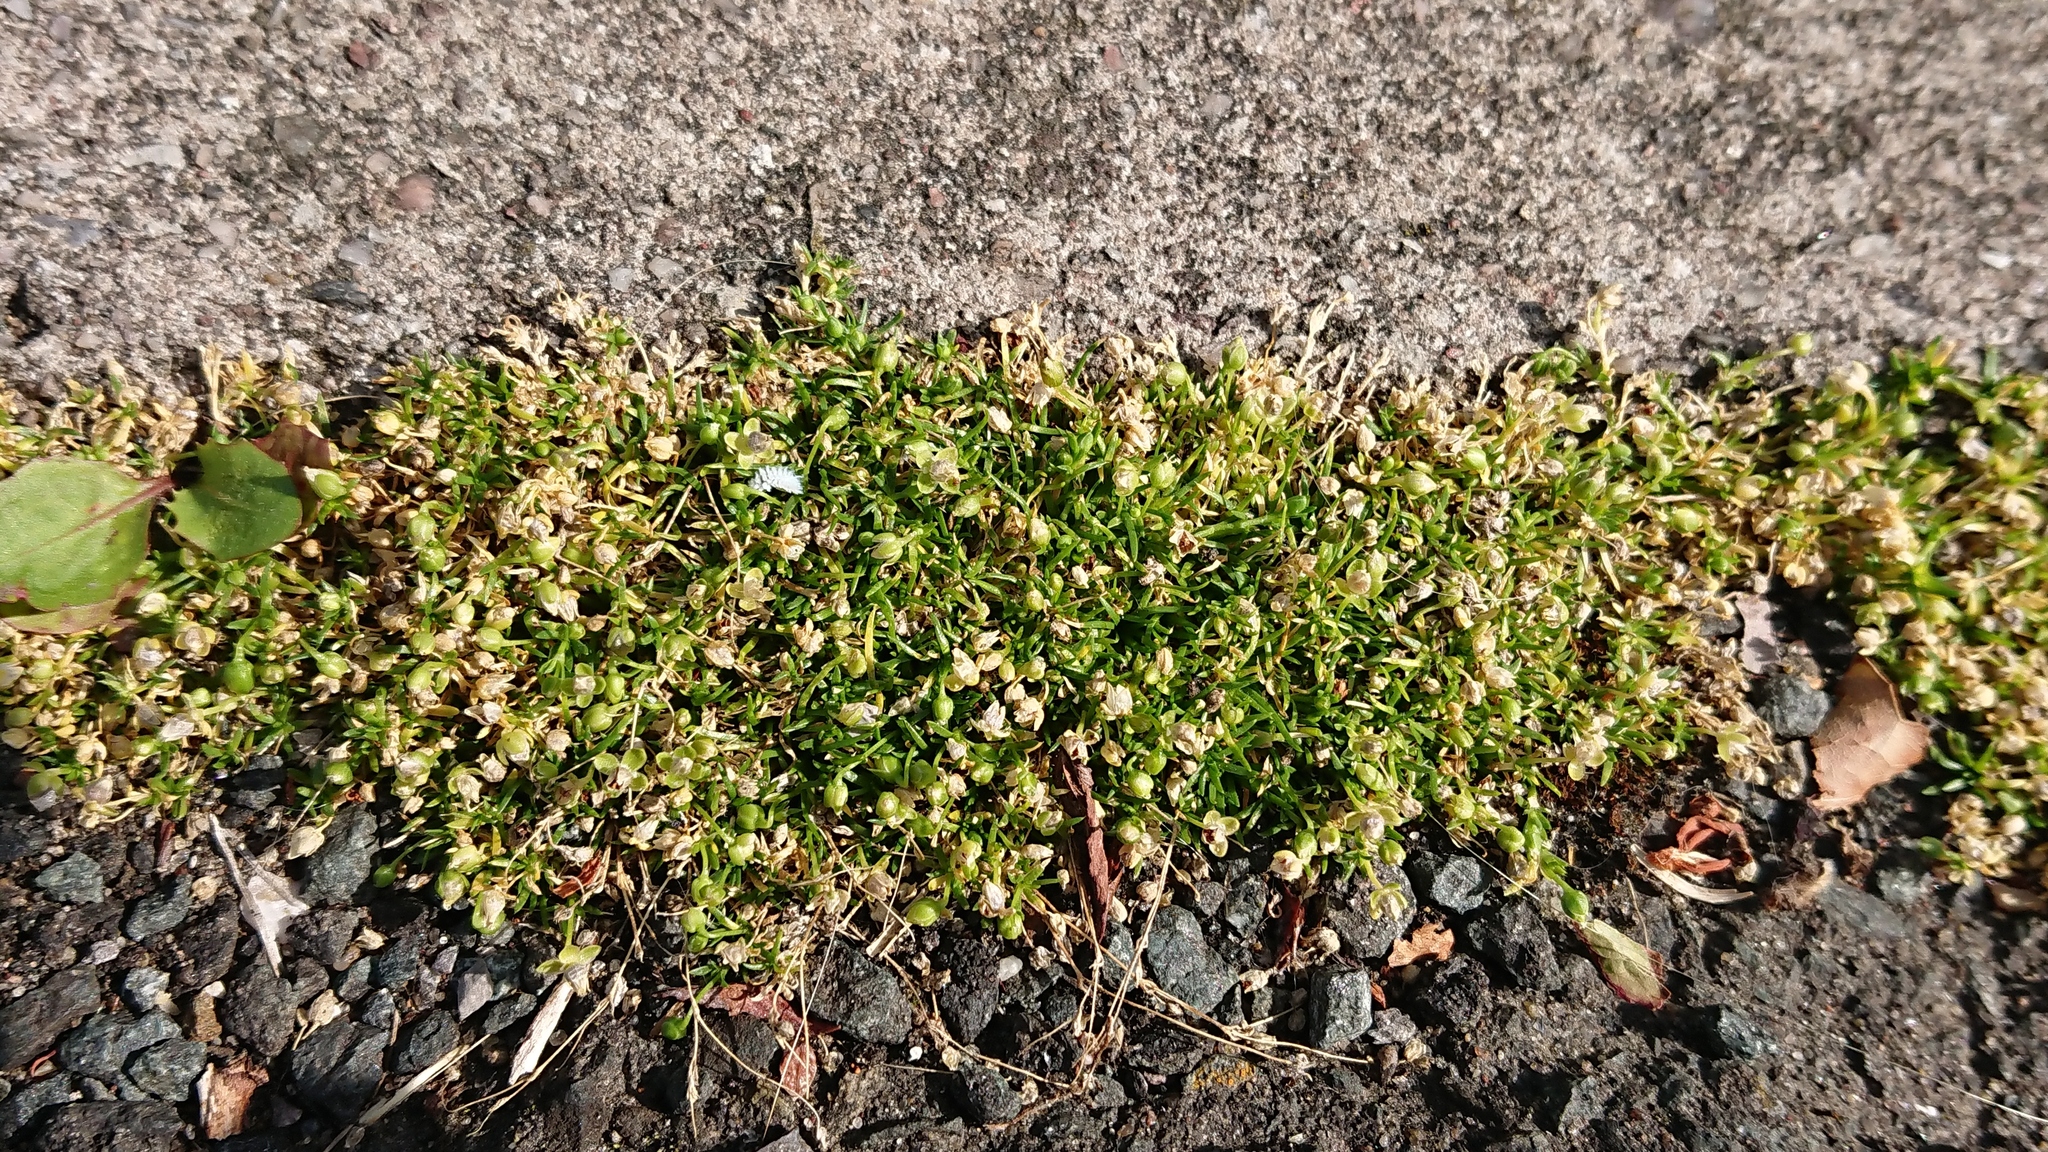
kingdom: Plantae
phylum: Tracheophyta
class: Magnoliopsida
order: Caryophyllales
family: Caryophyllaceae
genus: Sagina
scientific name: Sagina procumbens
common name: Procumbent pearlwort
